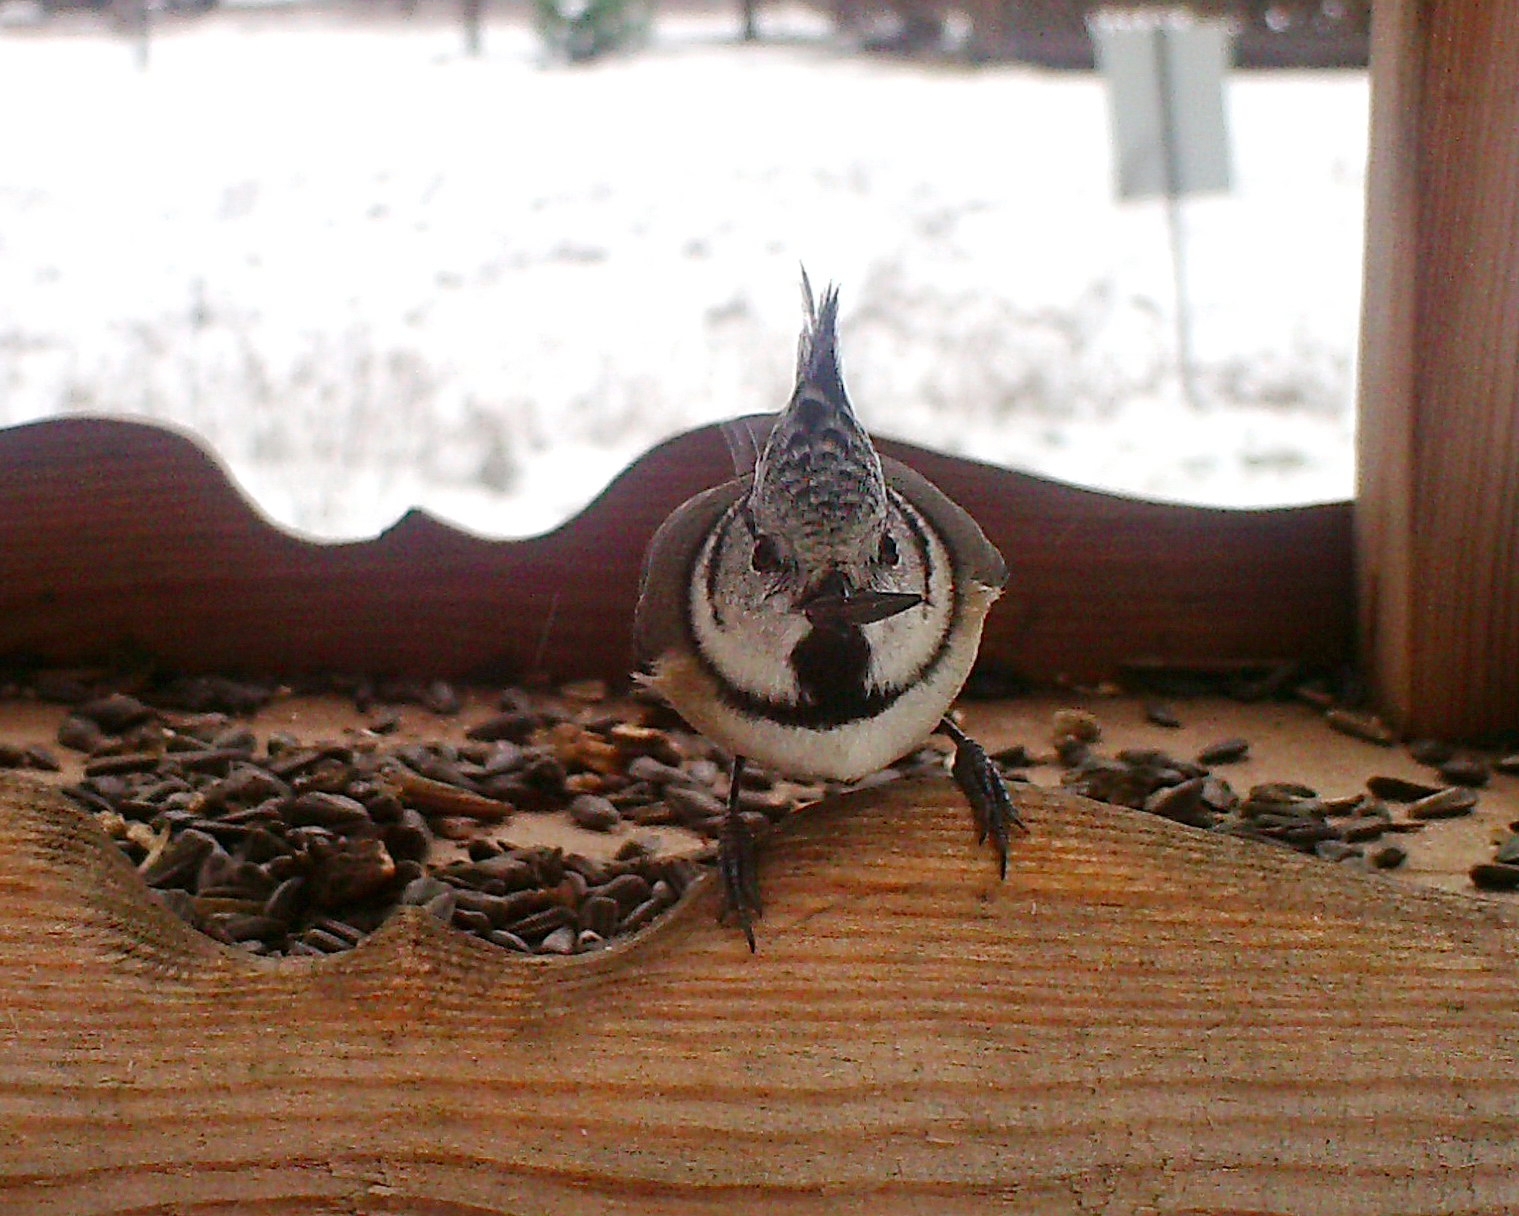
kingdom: Animalia
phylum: Chordata
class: Aves
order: Passeriformes
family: Paridae
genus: Lophophanes
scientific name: Lophophanes cristatus
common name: European crested tit
